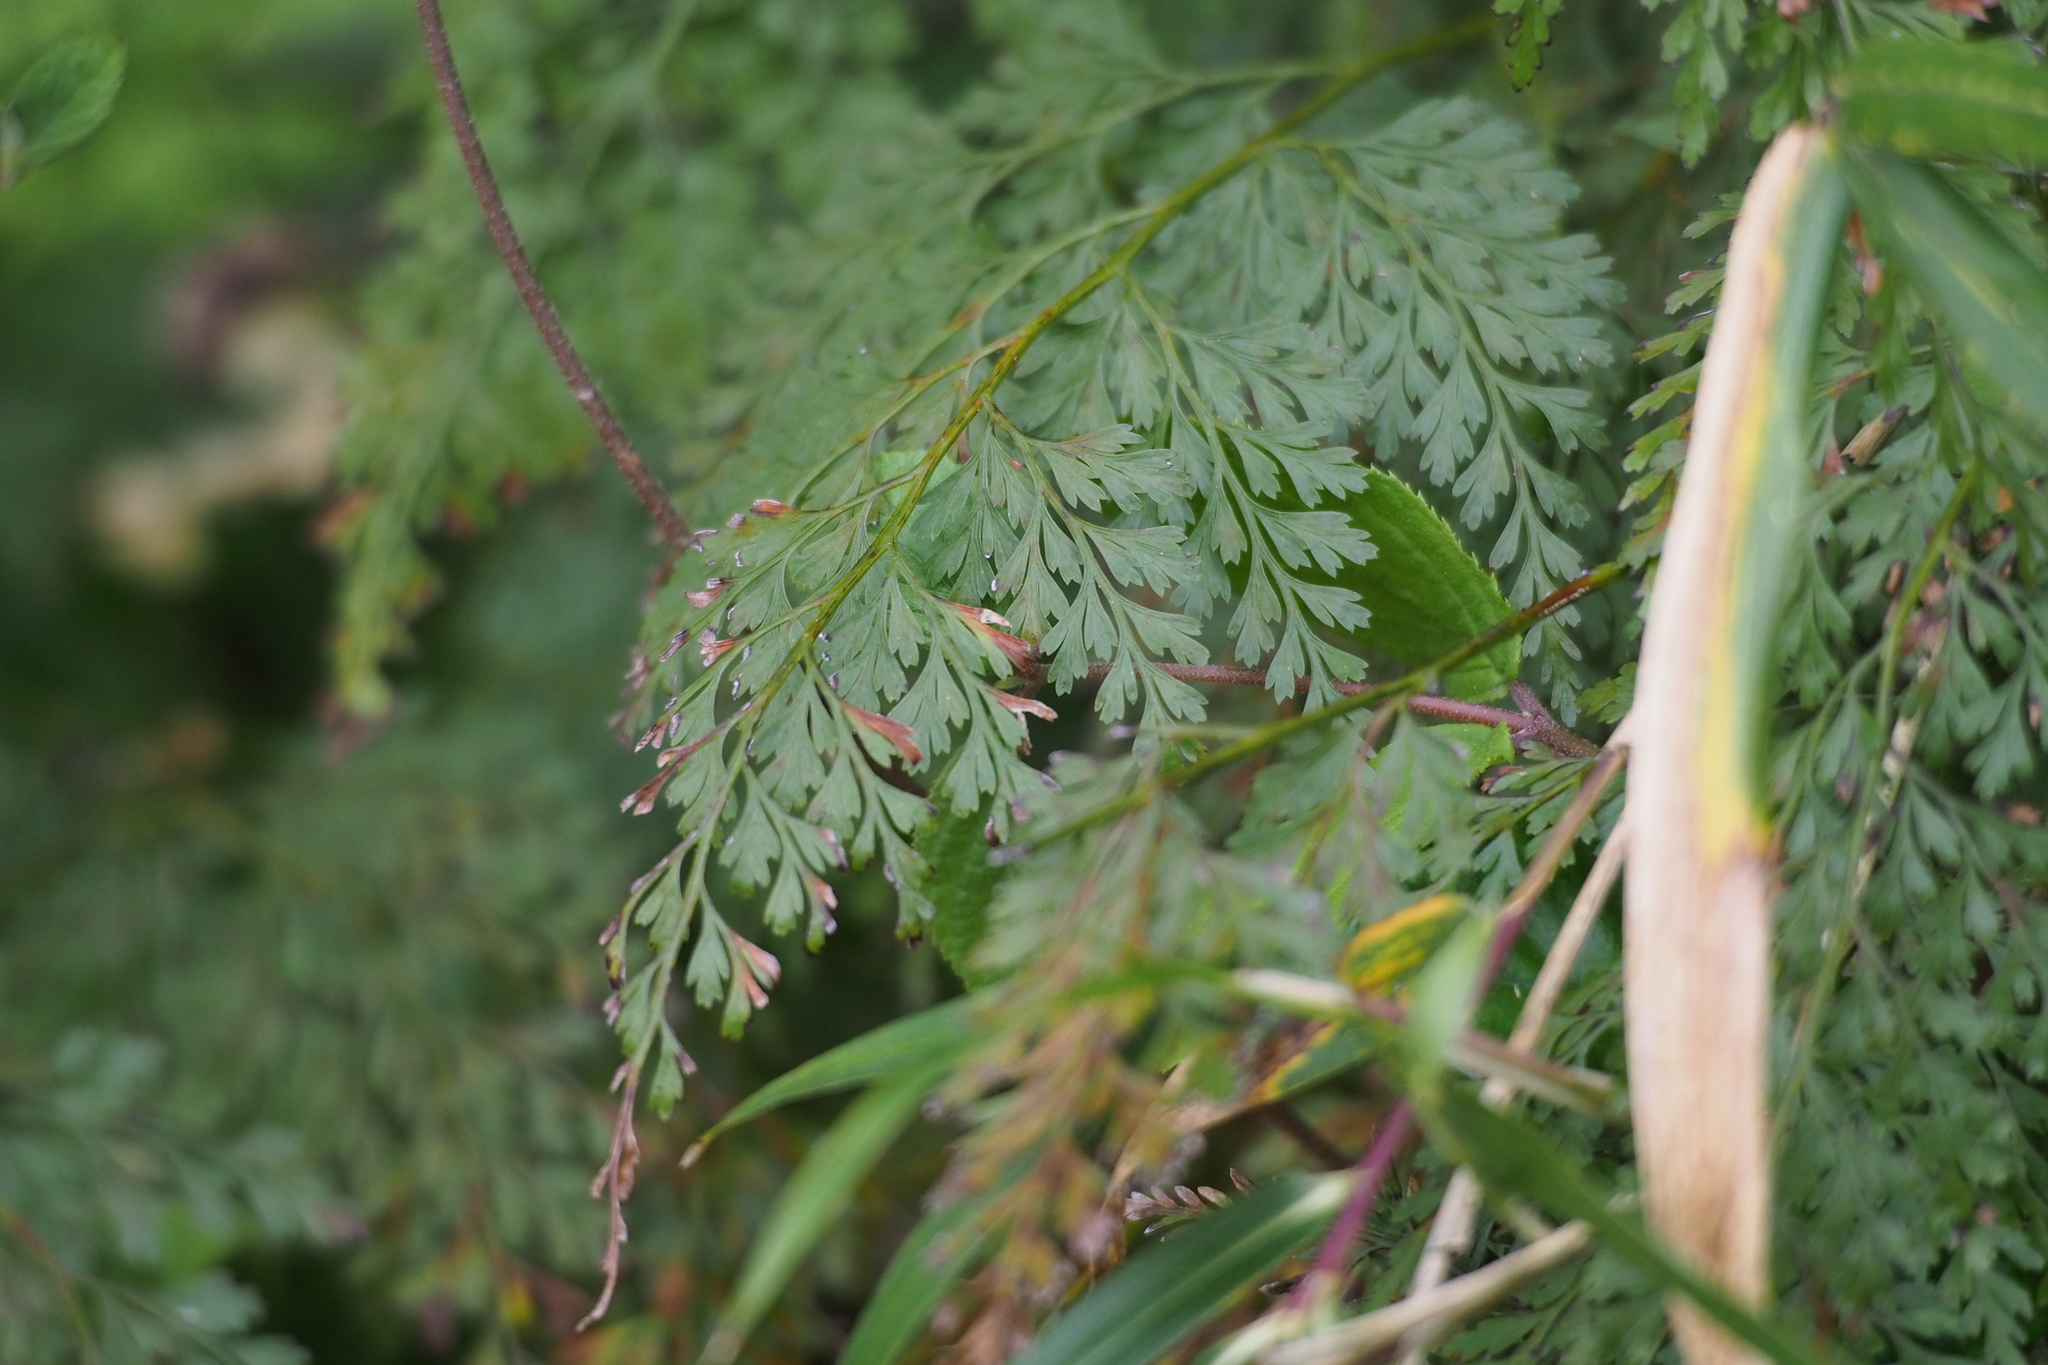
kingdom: Plantae
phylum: Tracheophyta
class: Polypodiopsida
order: Polypodiales
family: Pteridaceae
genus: Onychium
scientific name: Onychium japonicum
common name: Carrot fern
